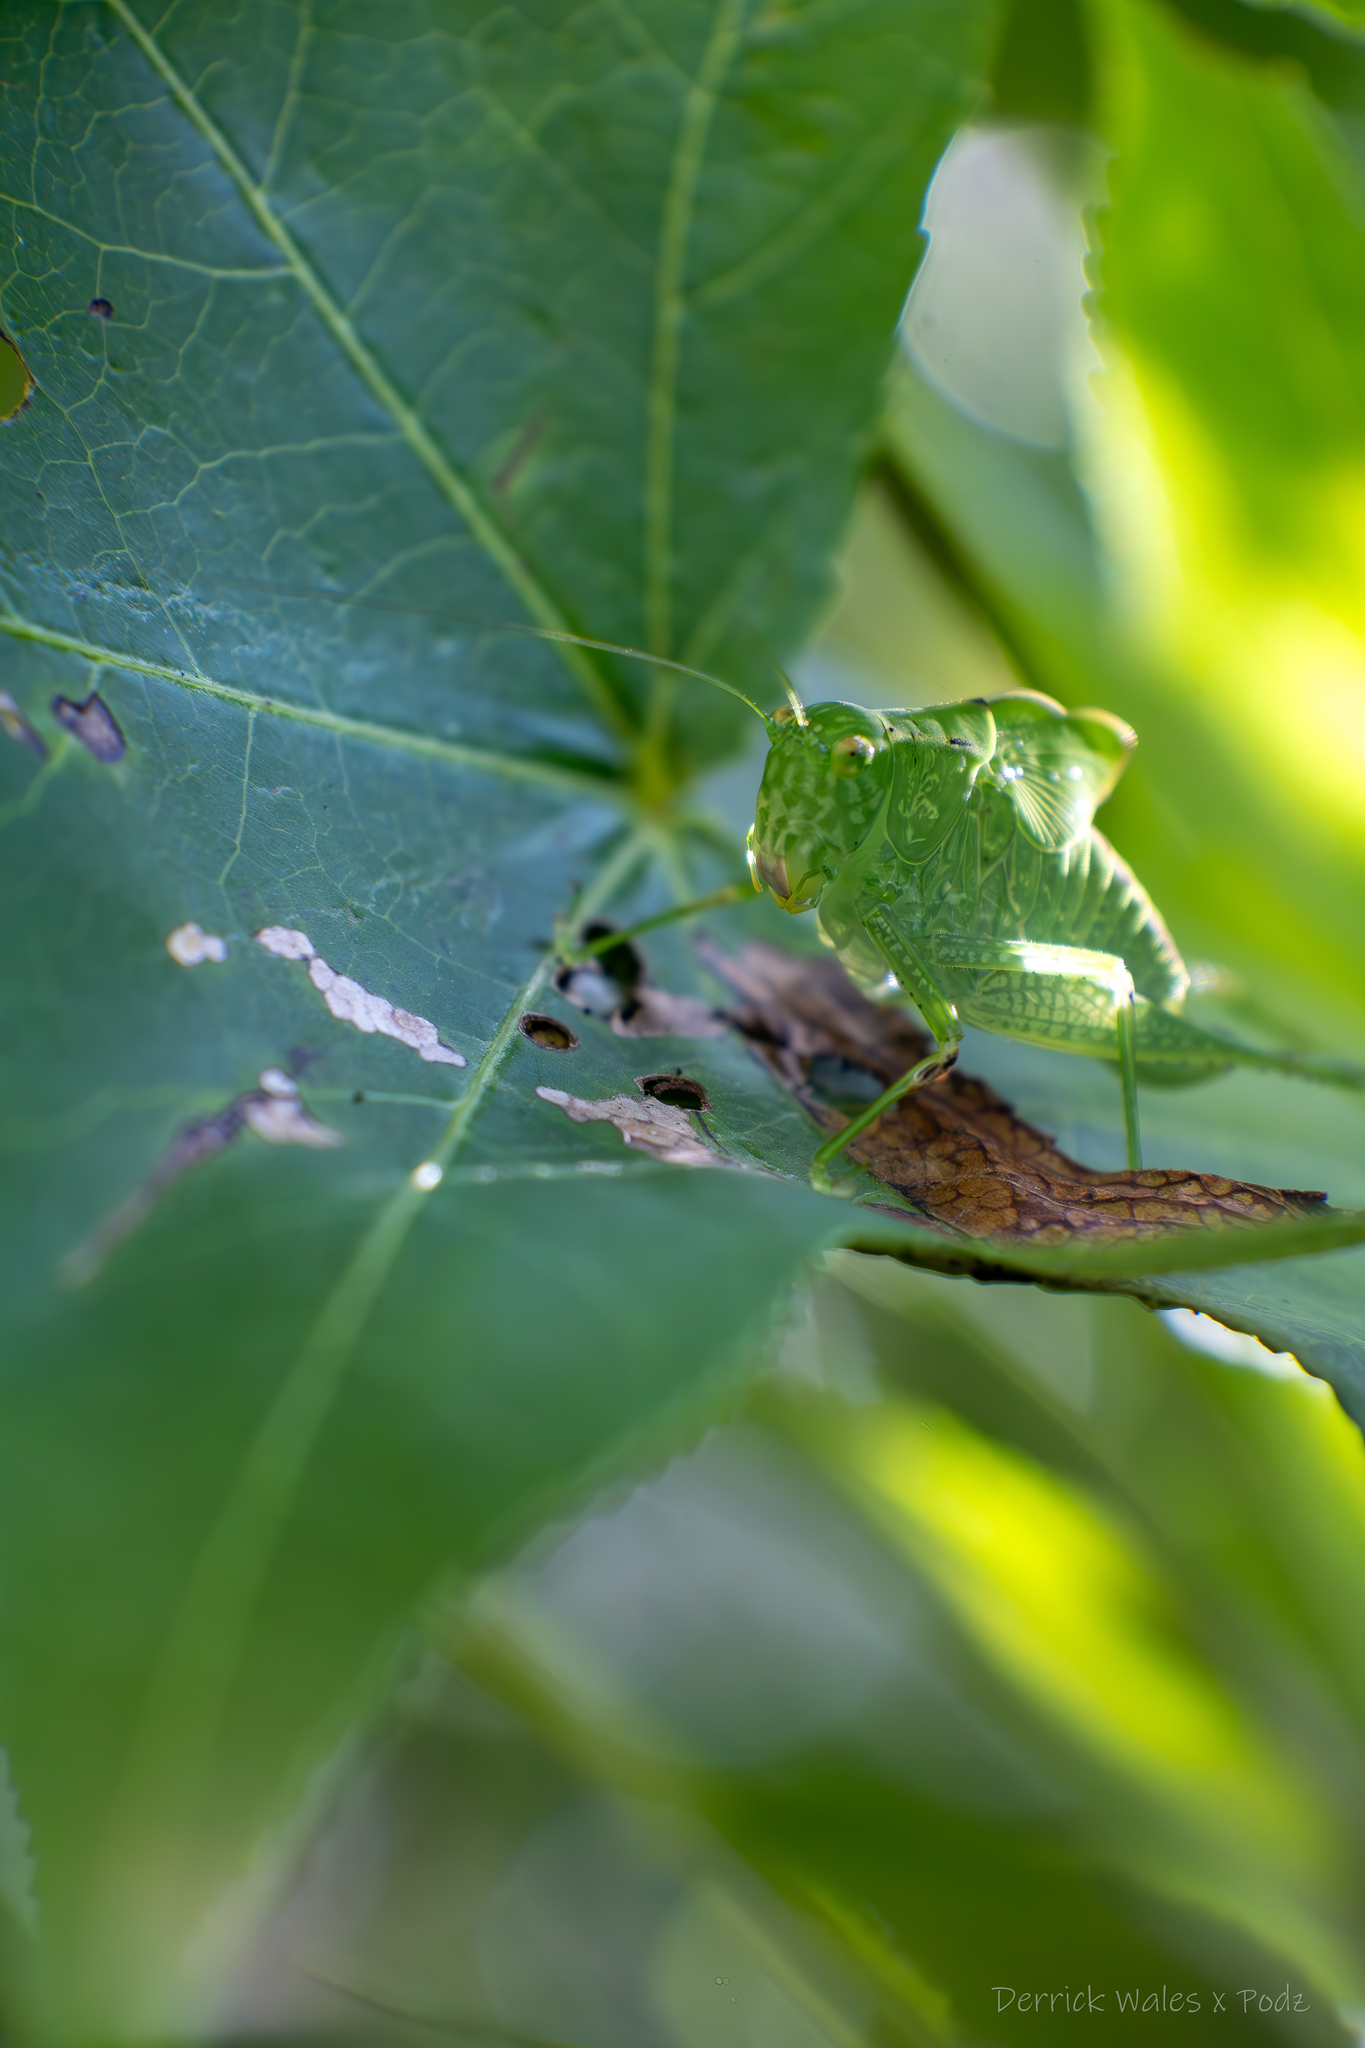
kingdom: Animalia
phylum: Arthropoda
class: Insecta
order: Orthoptera
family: Tettigoniidae
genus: Microcentrum
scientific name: Microcentrum rhombifolium
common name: Broad-winged katydid
